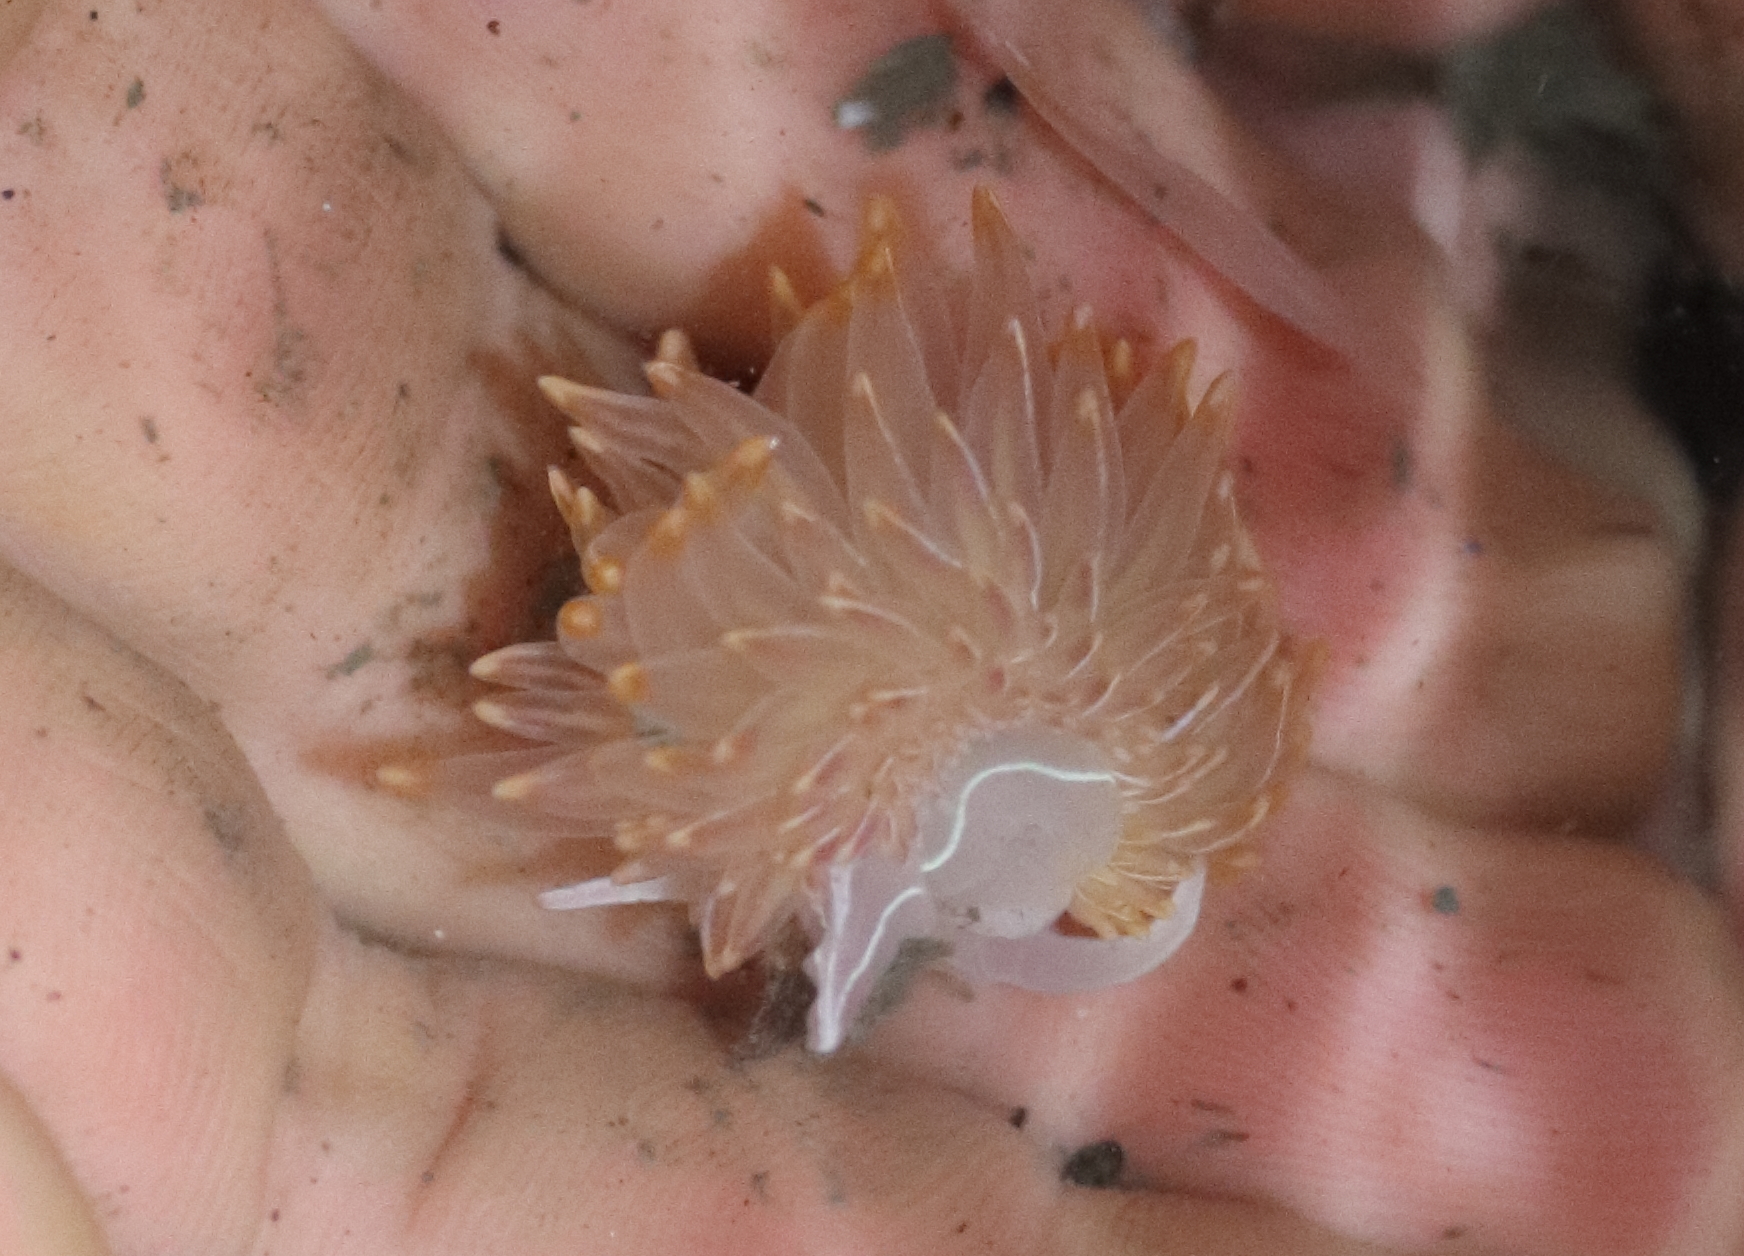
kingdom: Animalia
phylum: Mollusca
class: Gastropoda
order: Nudibranchia
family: Myrrhinidae
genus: Hermissenda
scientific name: Hermissenda crassicornis
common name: Hermissenda
